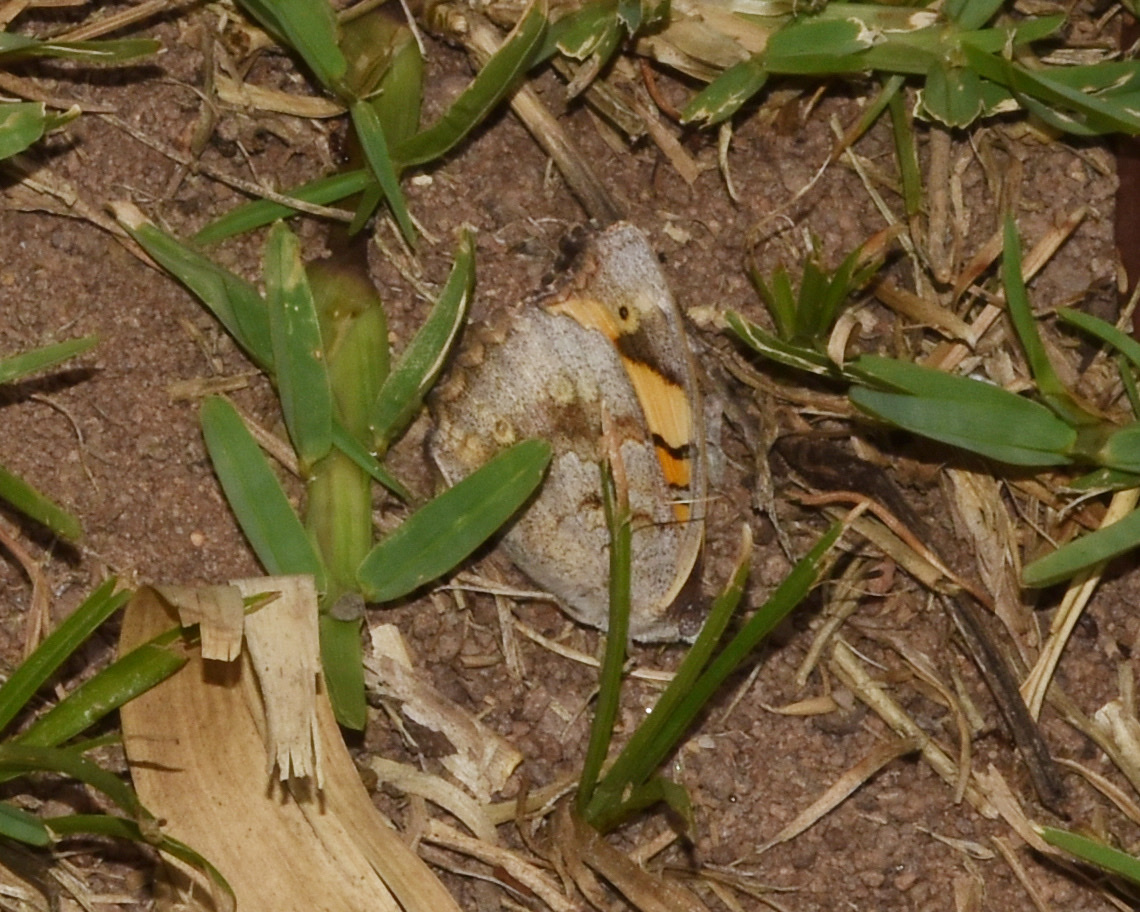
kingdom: Animalia
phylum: Arthropoda
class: Insecta
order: Lepidoptera
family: Nymphalidae
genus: Junonia
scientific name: Junonia hierta
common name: Yellow pansy
